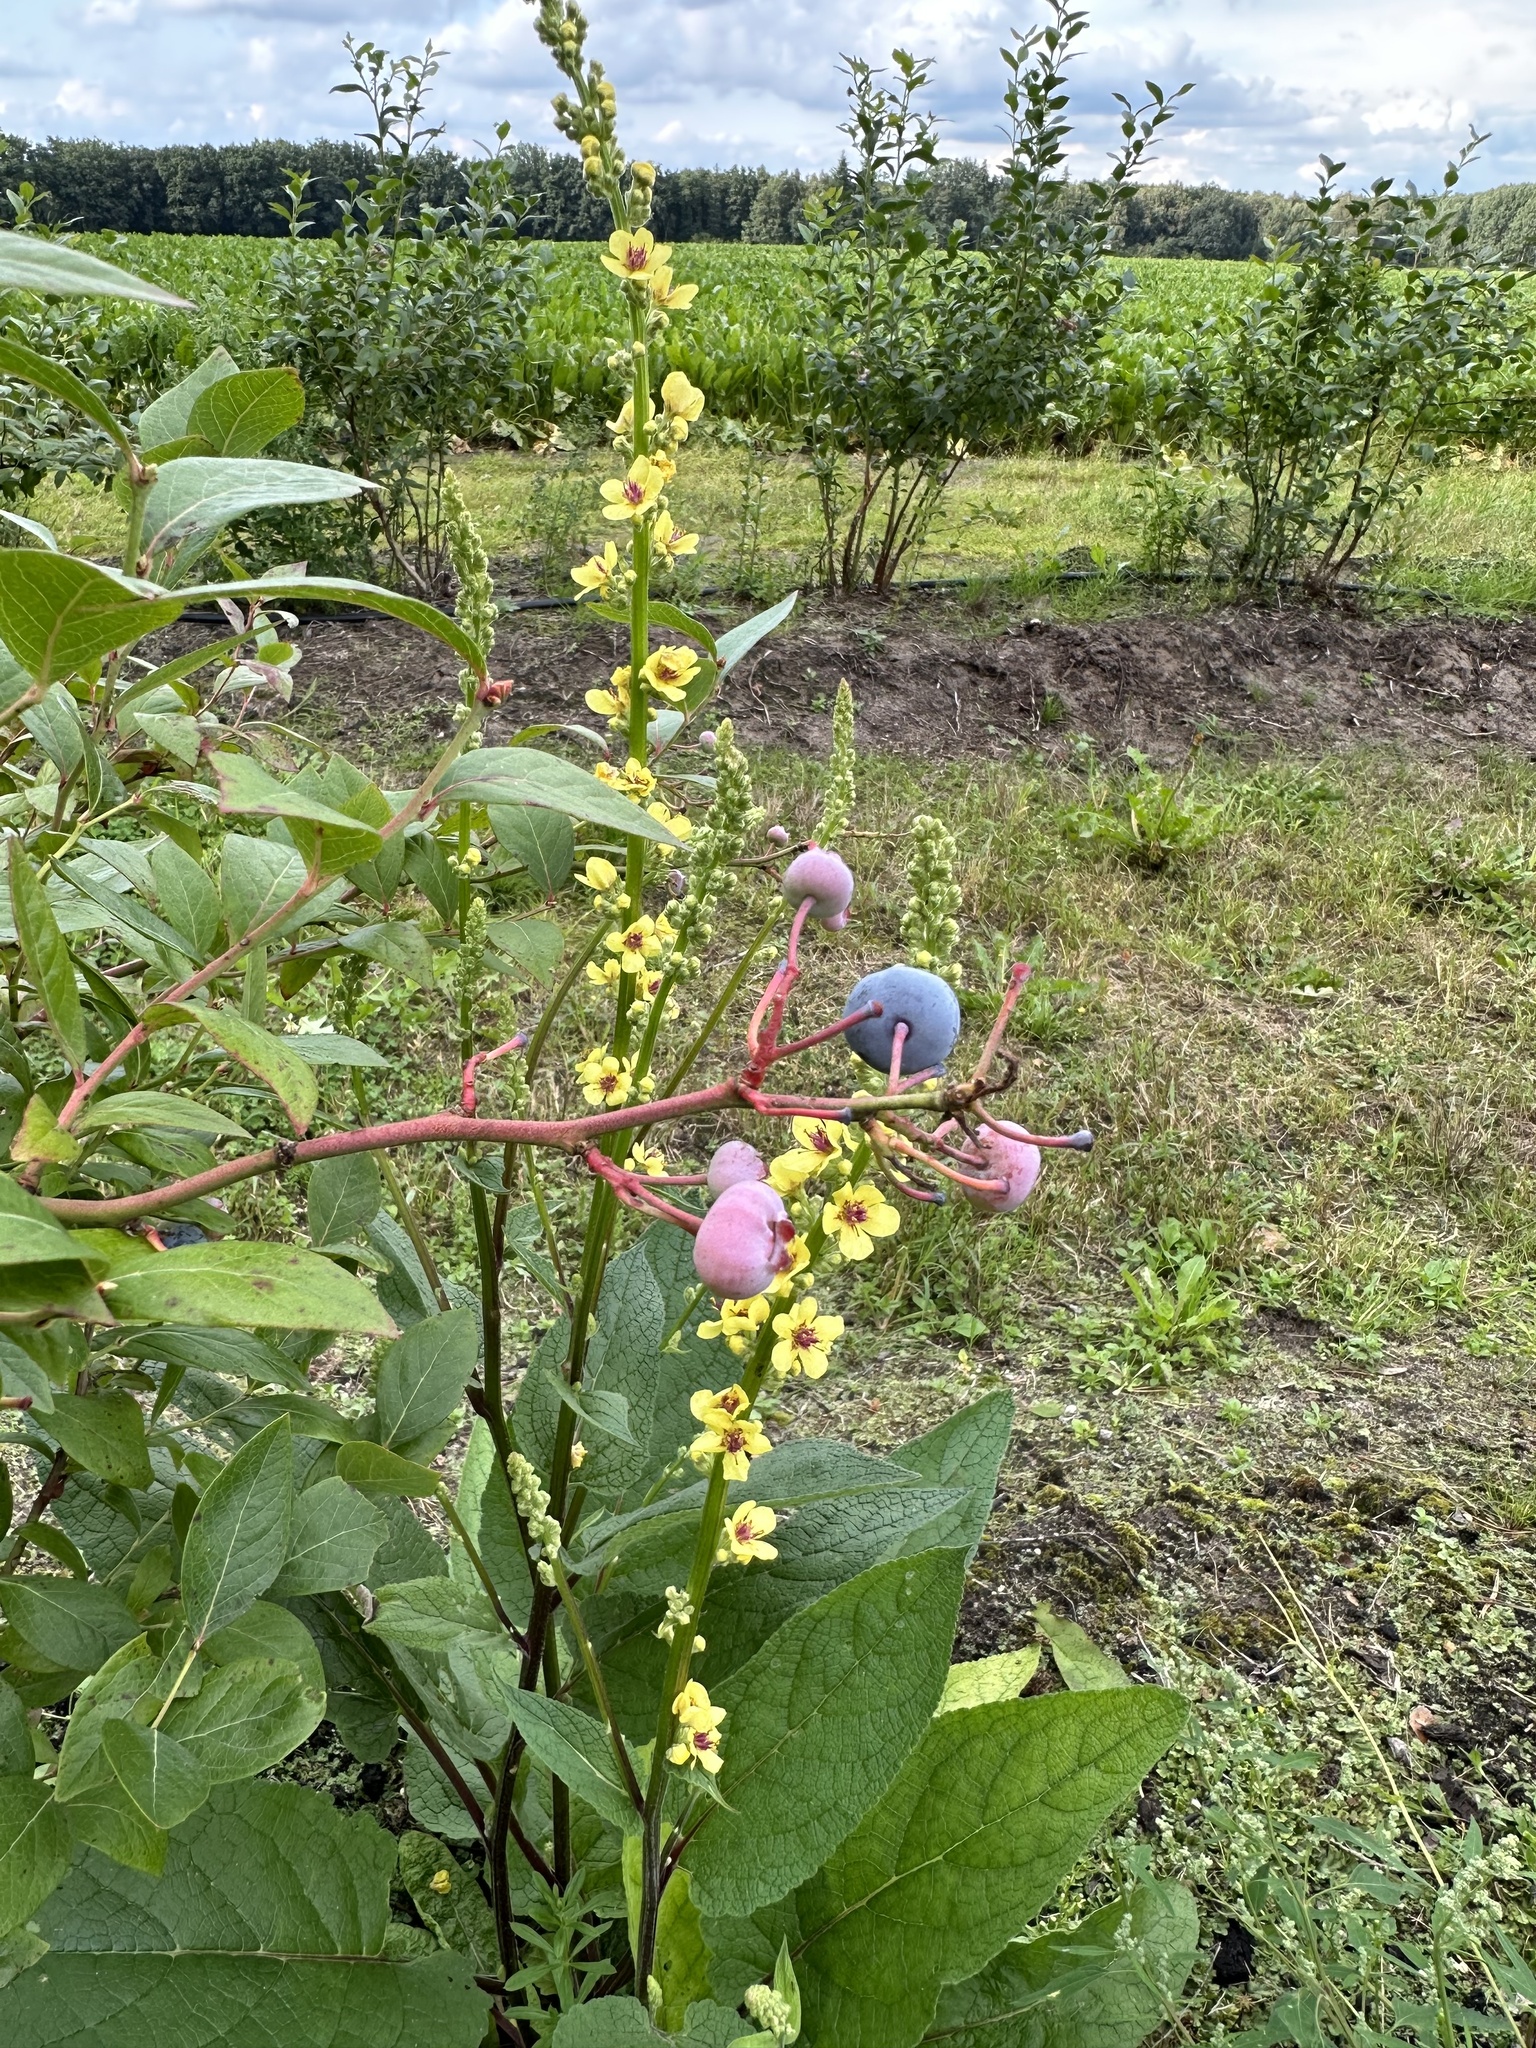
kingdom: Plantae
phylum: Tracheophyta
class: Magnoliopsida
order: Lamiales
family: Scrophulariaceae
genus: Verbascum
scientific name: Verbascum nigrum
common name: Dark mullein
